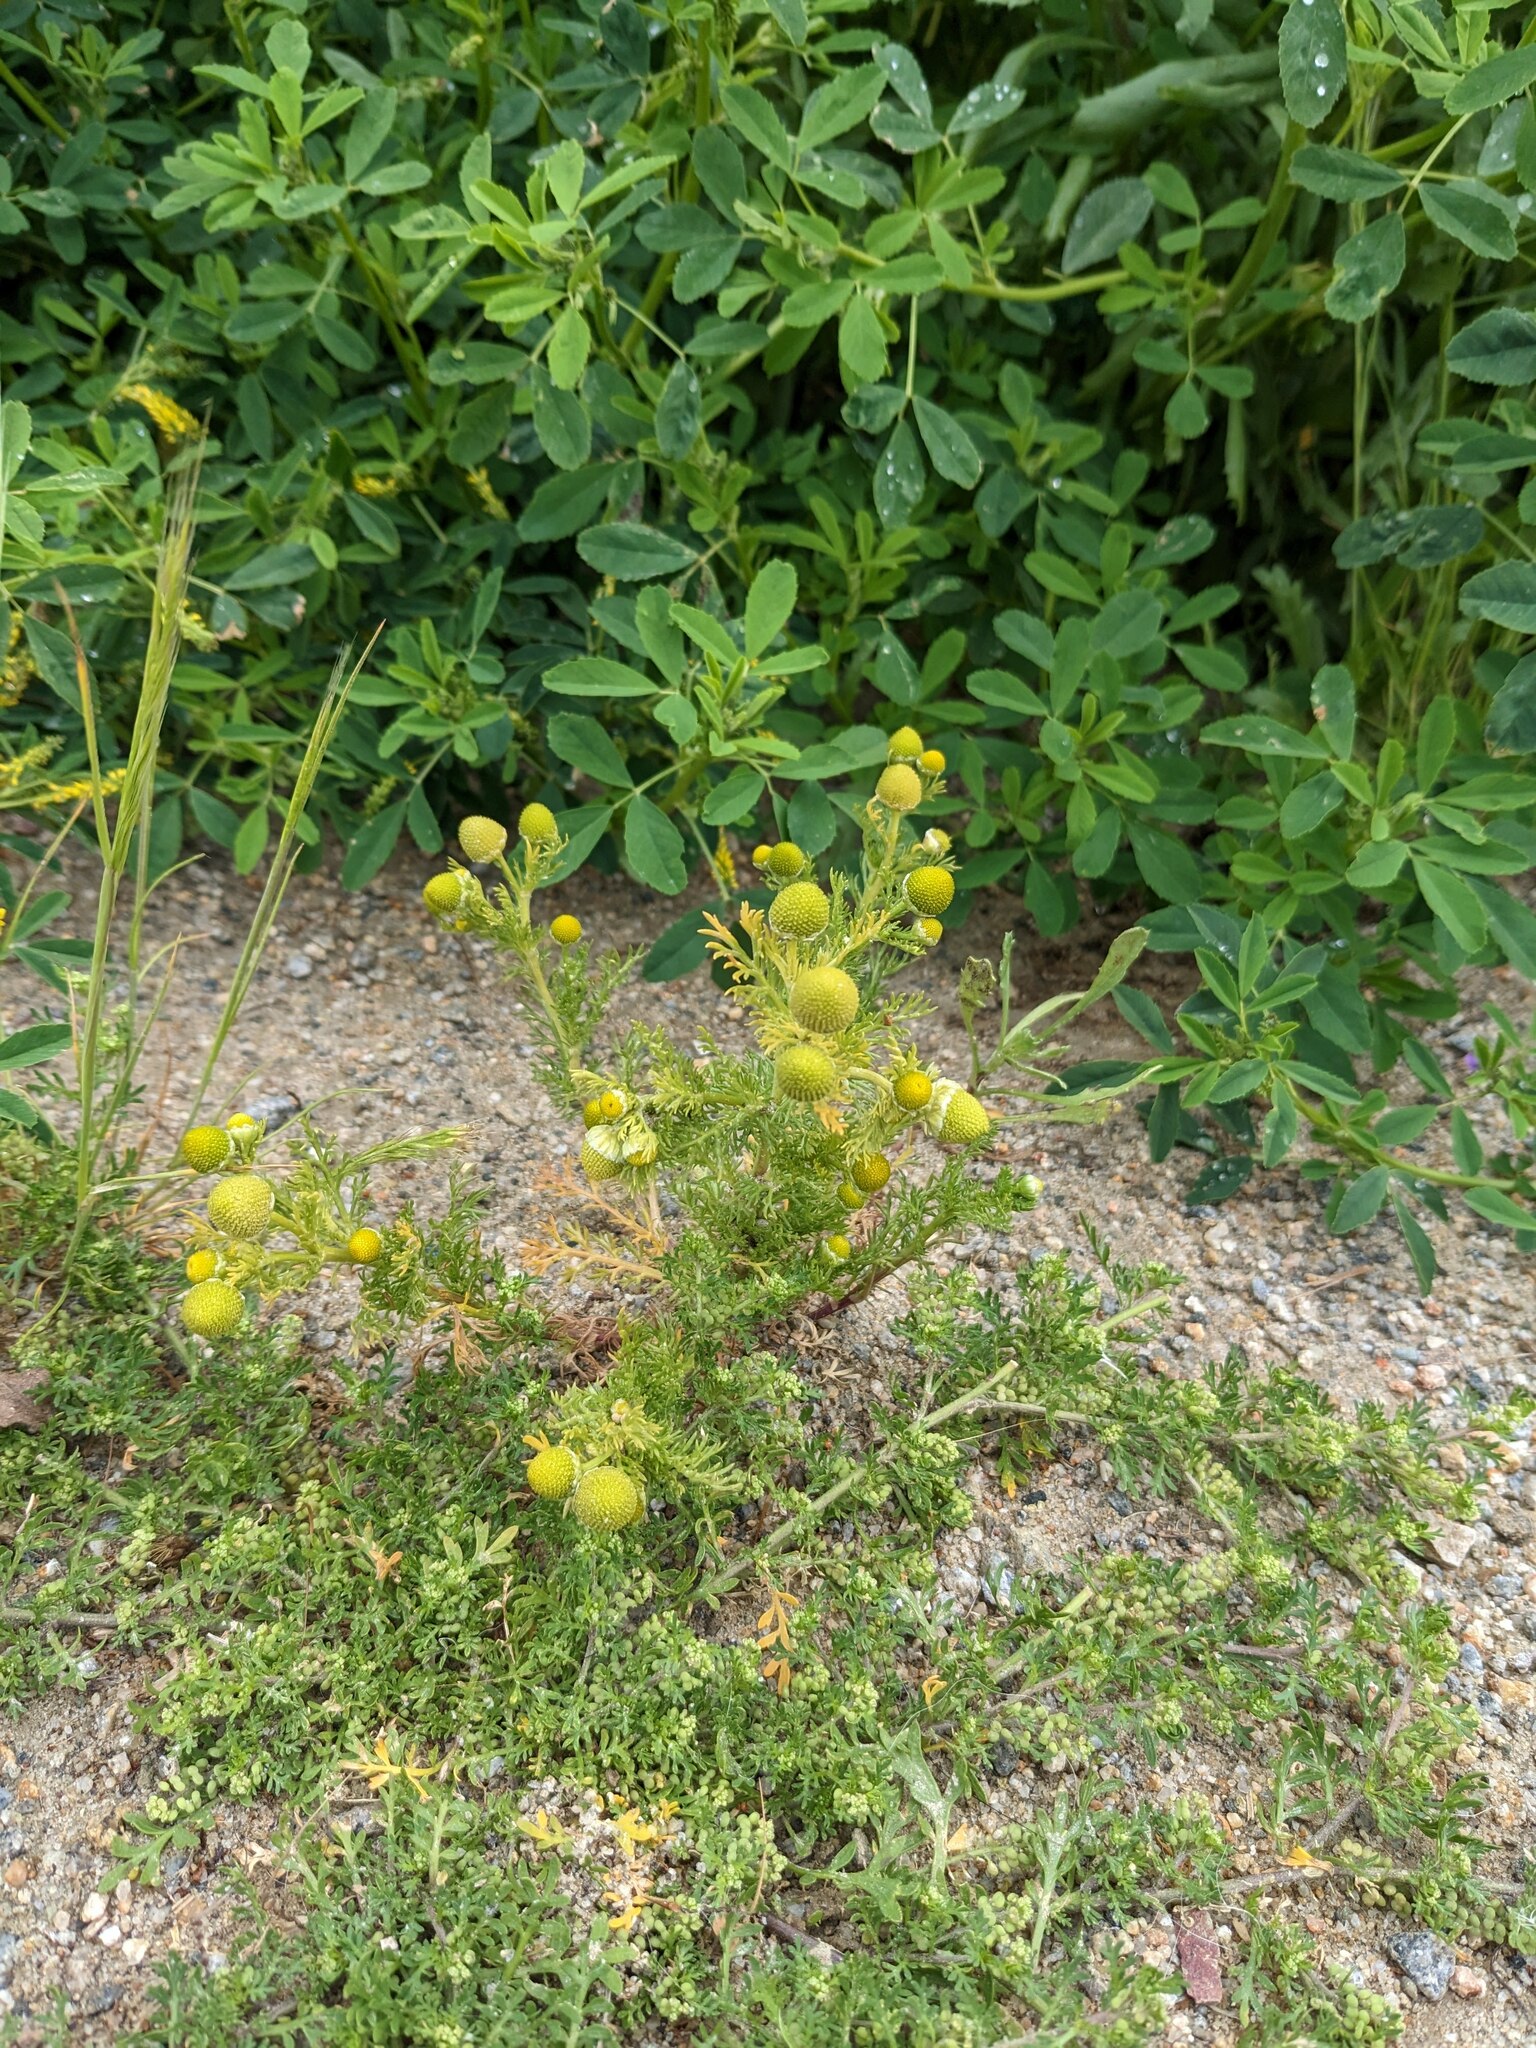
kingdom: Plantae
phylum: Tracheophyta
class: Magnoliopsida
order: Asterales
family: Asteraceae
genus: Matricaria
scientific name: Matricaria discoidea
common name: Disc mayweed
